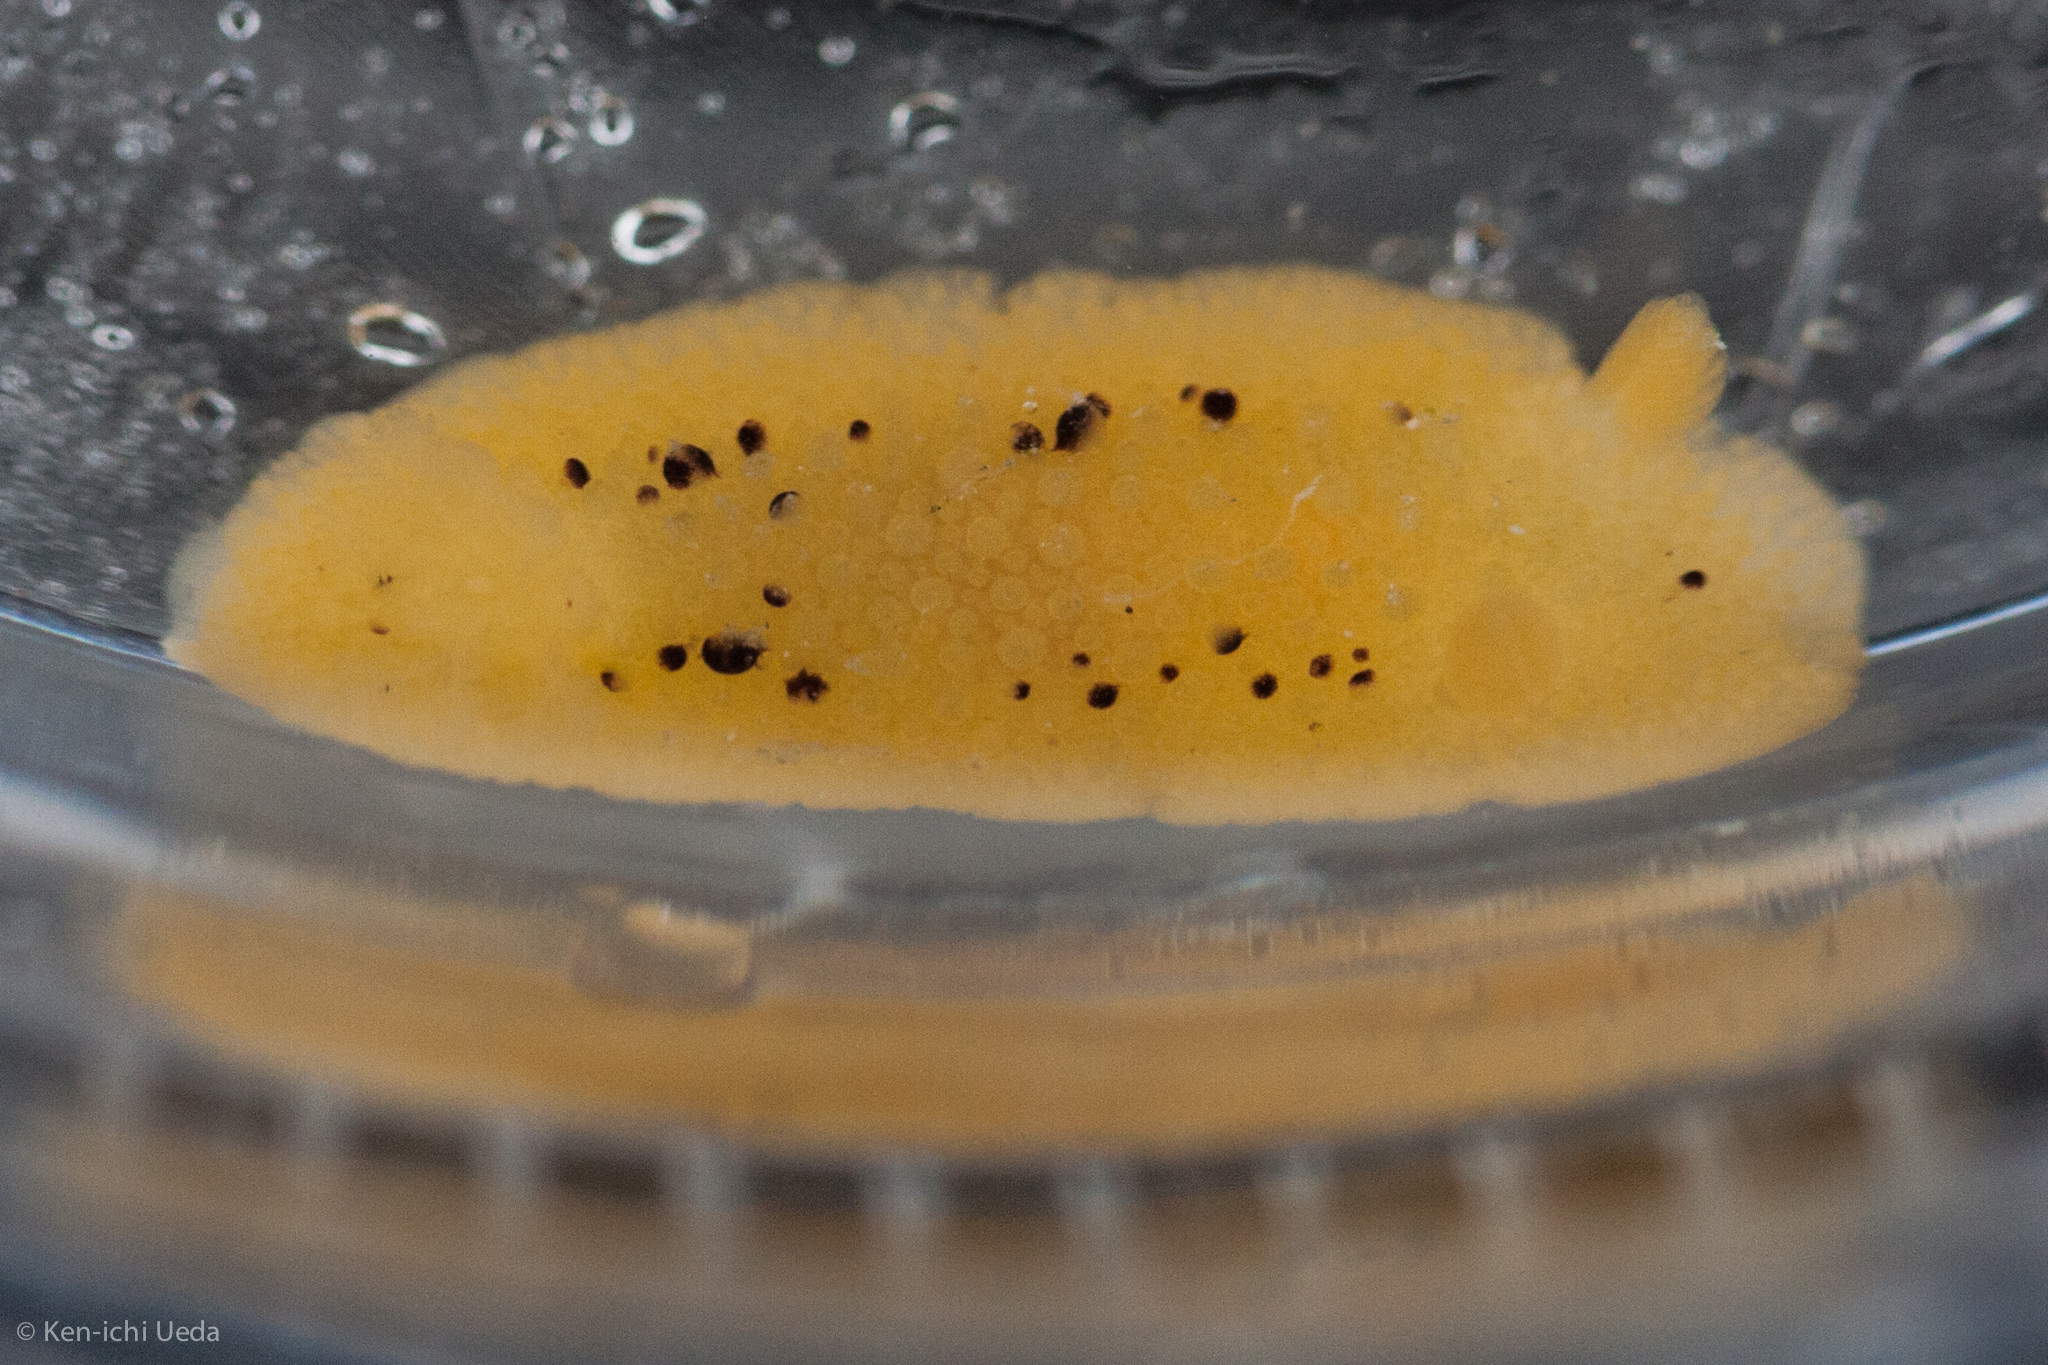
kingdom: Animalia
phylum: Mollusca
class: Gastropoda
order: Nudibranchia
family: Dorididae
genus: Doris
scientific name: Doris montereyensis
